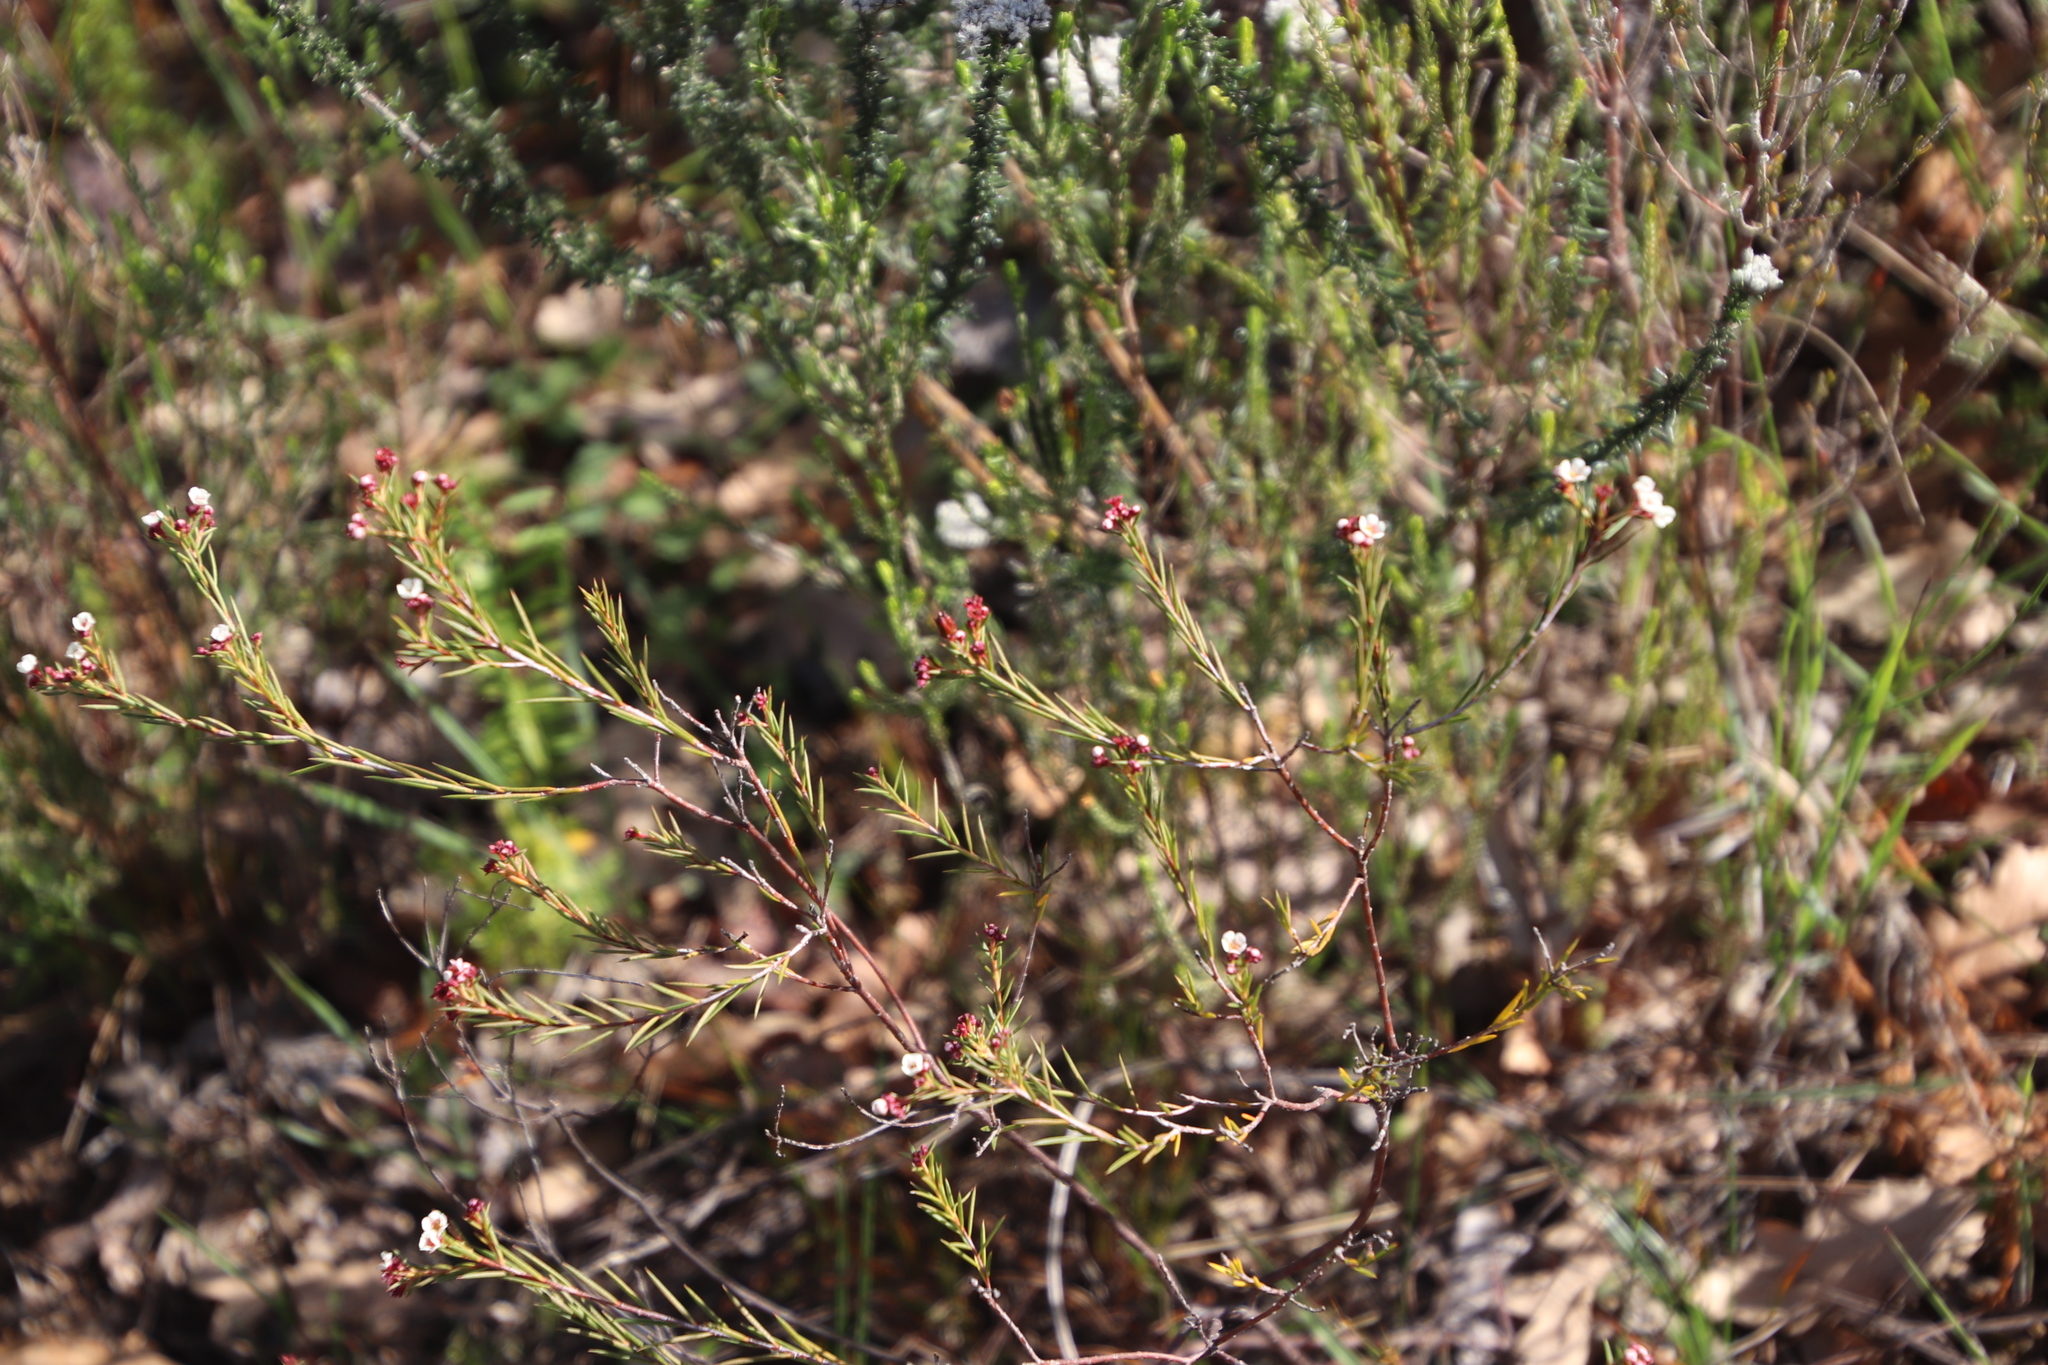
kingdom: Plantae
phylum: Tracheophyta
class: Magnoliopsida
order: Sapindales
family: Rutaceae
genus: Diosma
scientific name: Diosma hirsuta
